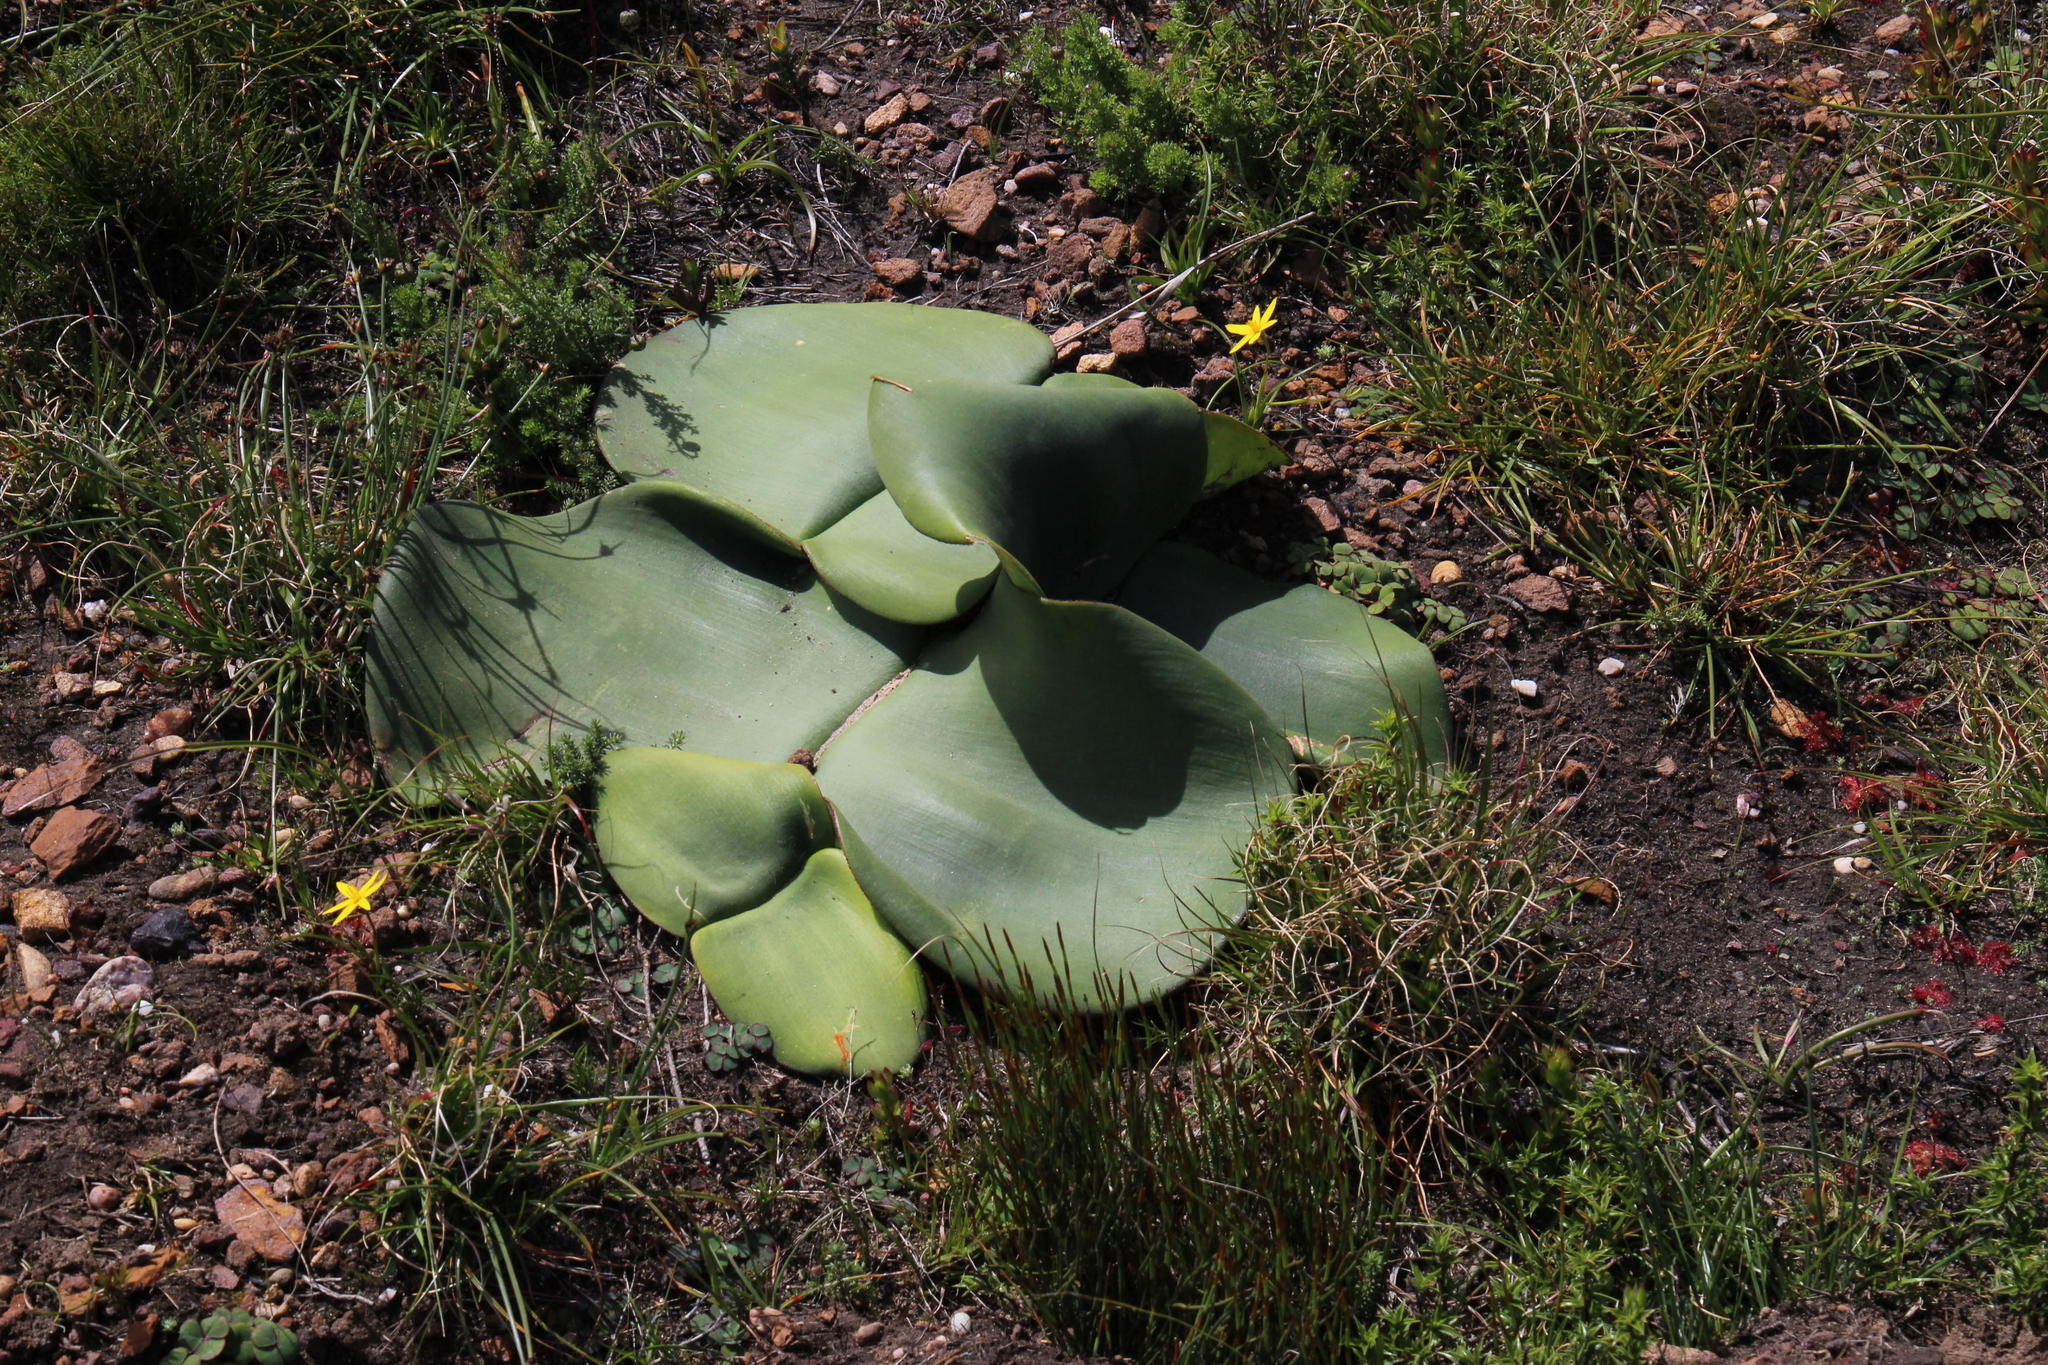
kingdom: Plantae
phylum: Tracheophyta
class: Liliopsida
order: Asparagales
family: Amaryllidaceae
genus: Haemanthus
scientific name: Haemanthus sanguineus
